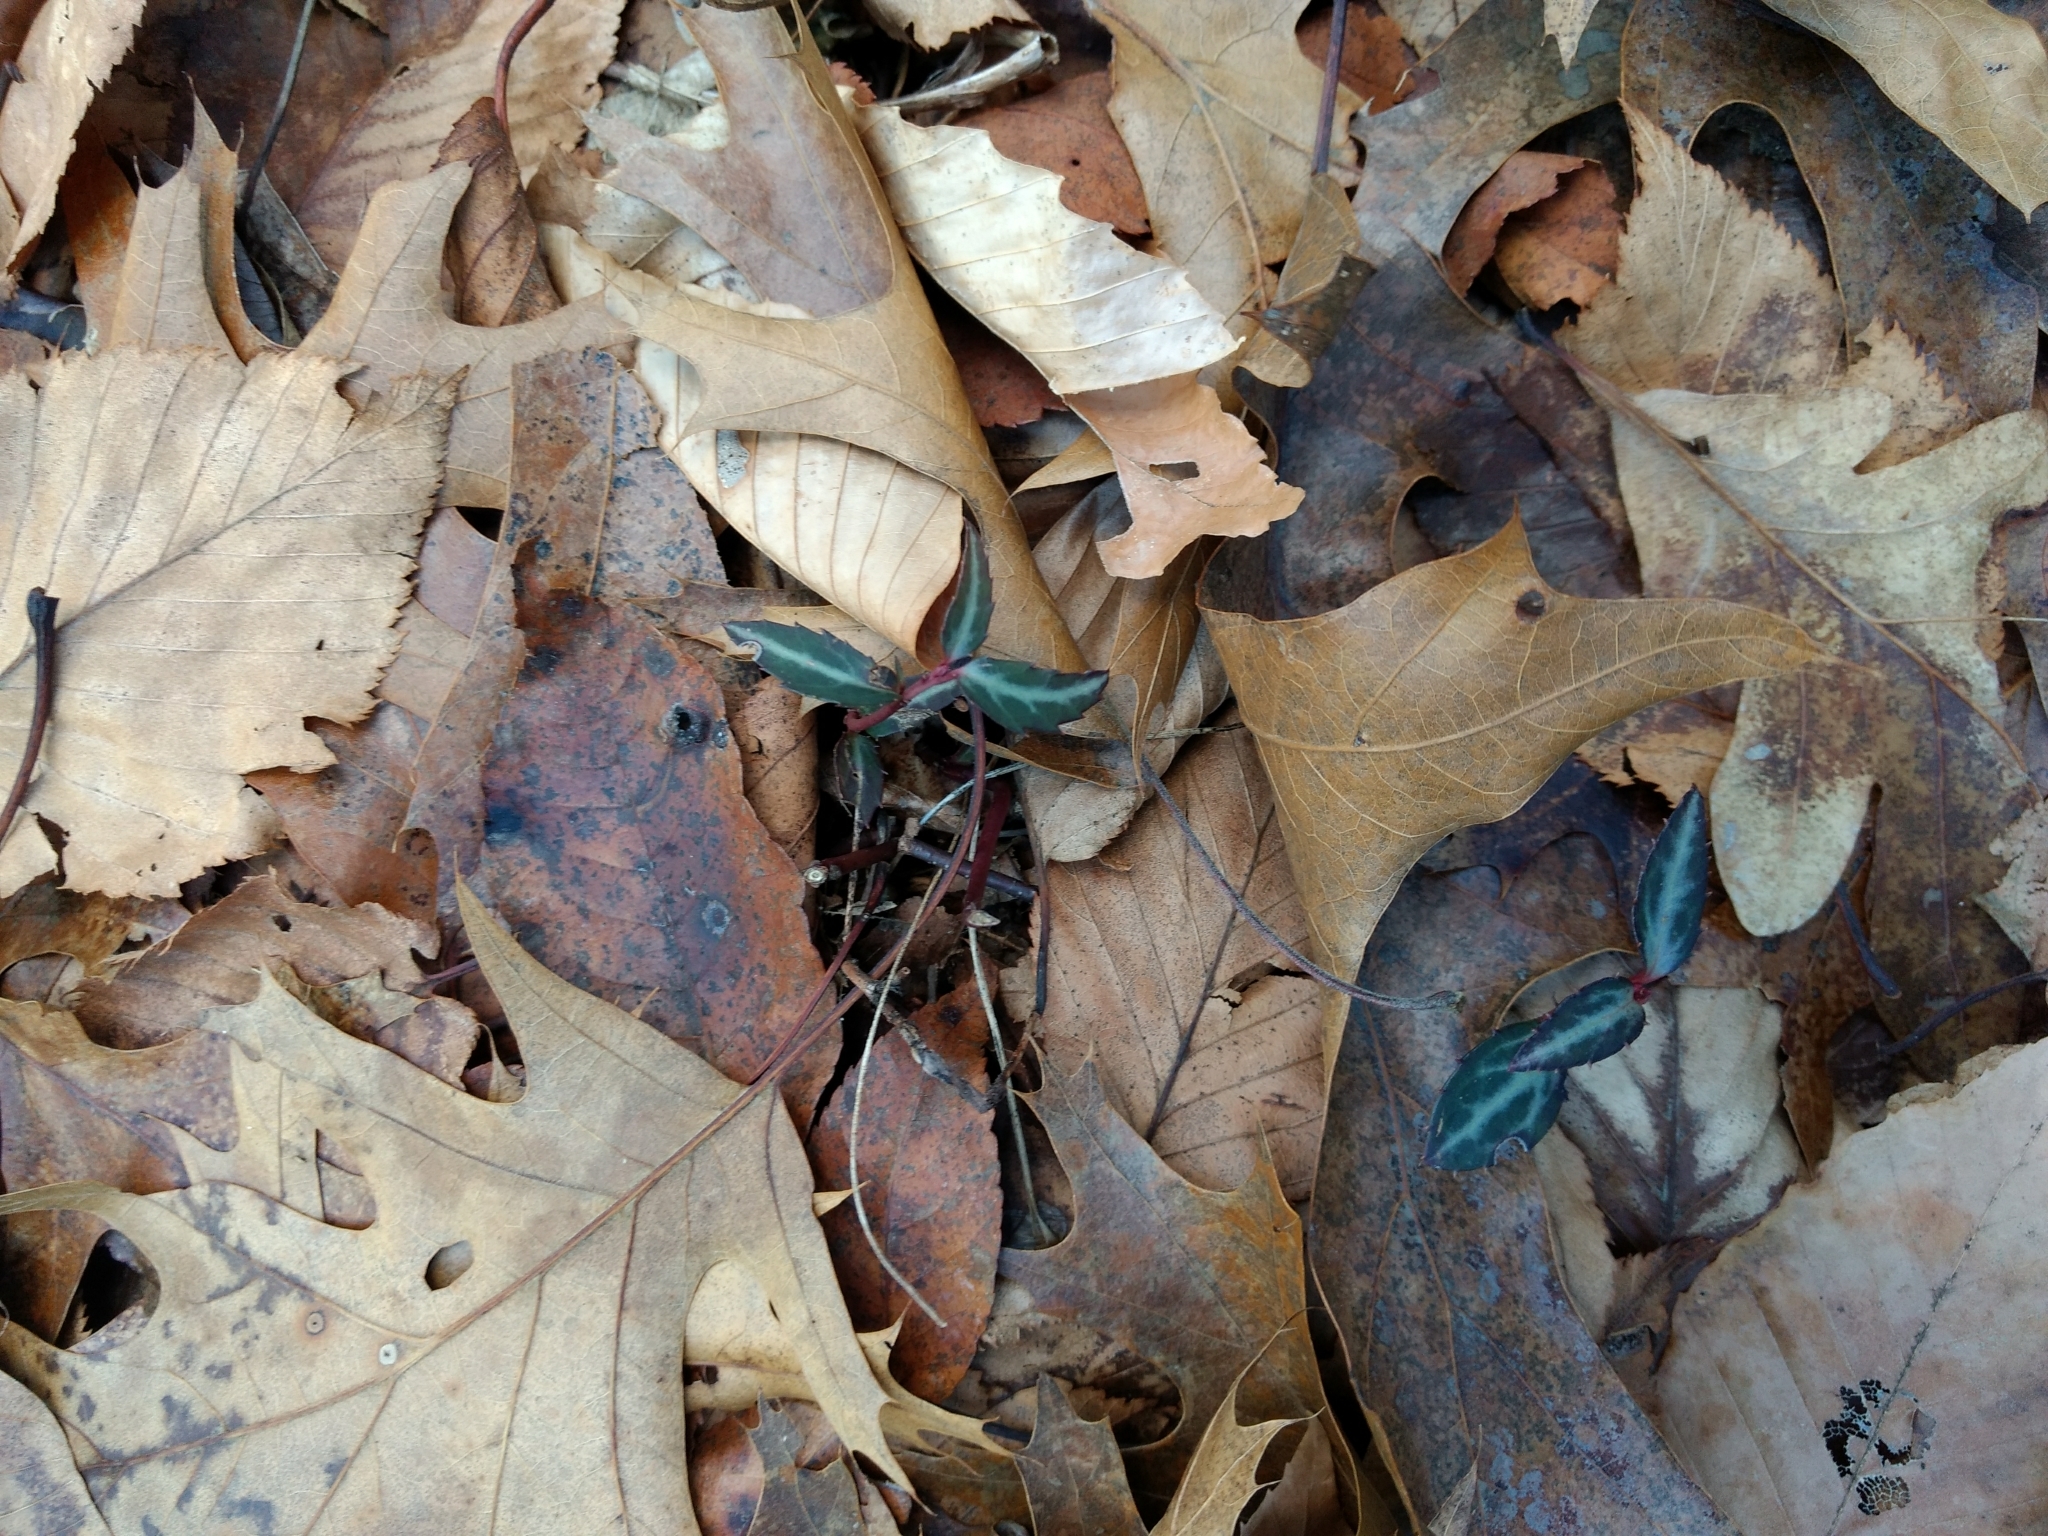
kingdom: Plantae
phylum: Tracheophyta
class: Magnoliopsida
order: Ericales
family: Ericaceae
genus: Chimaphila
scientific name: Chimaphila maculata
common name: Spotted pipsissewa
